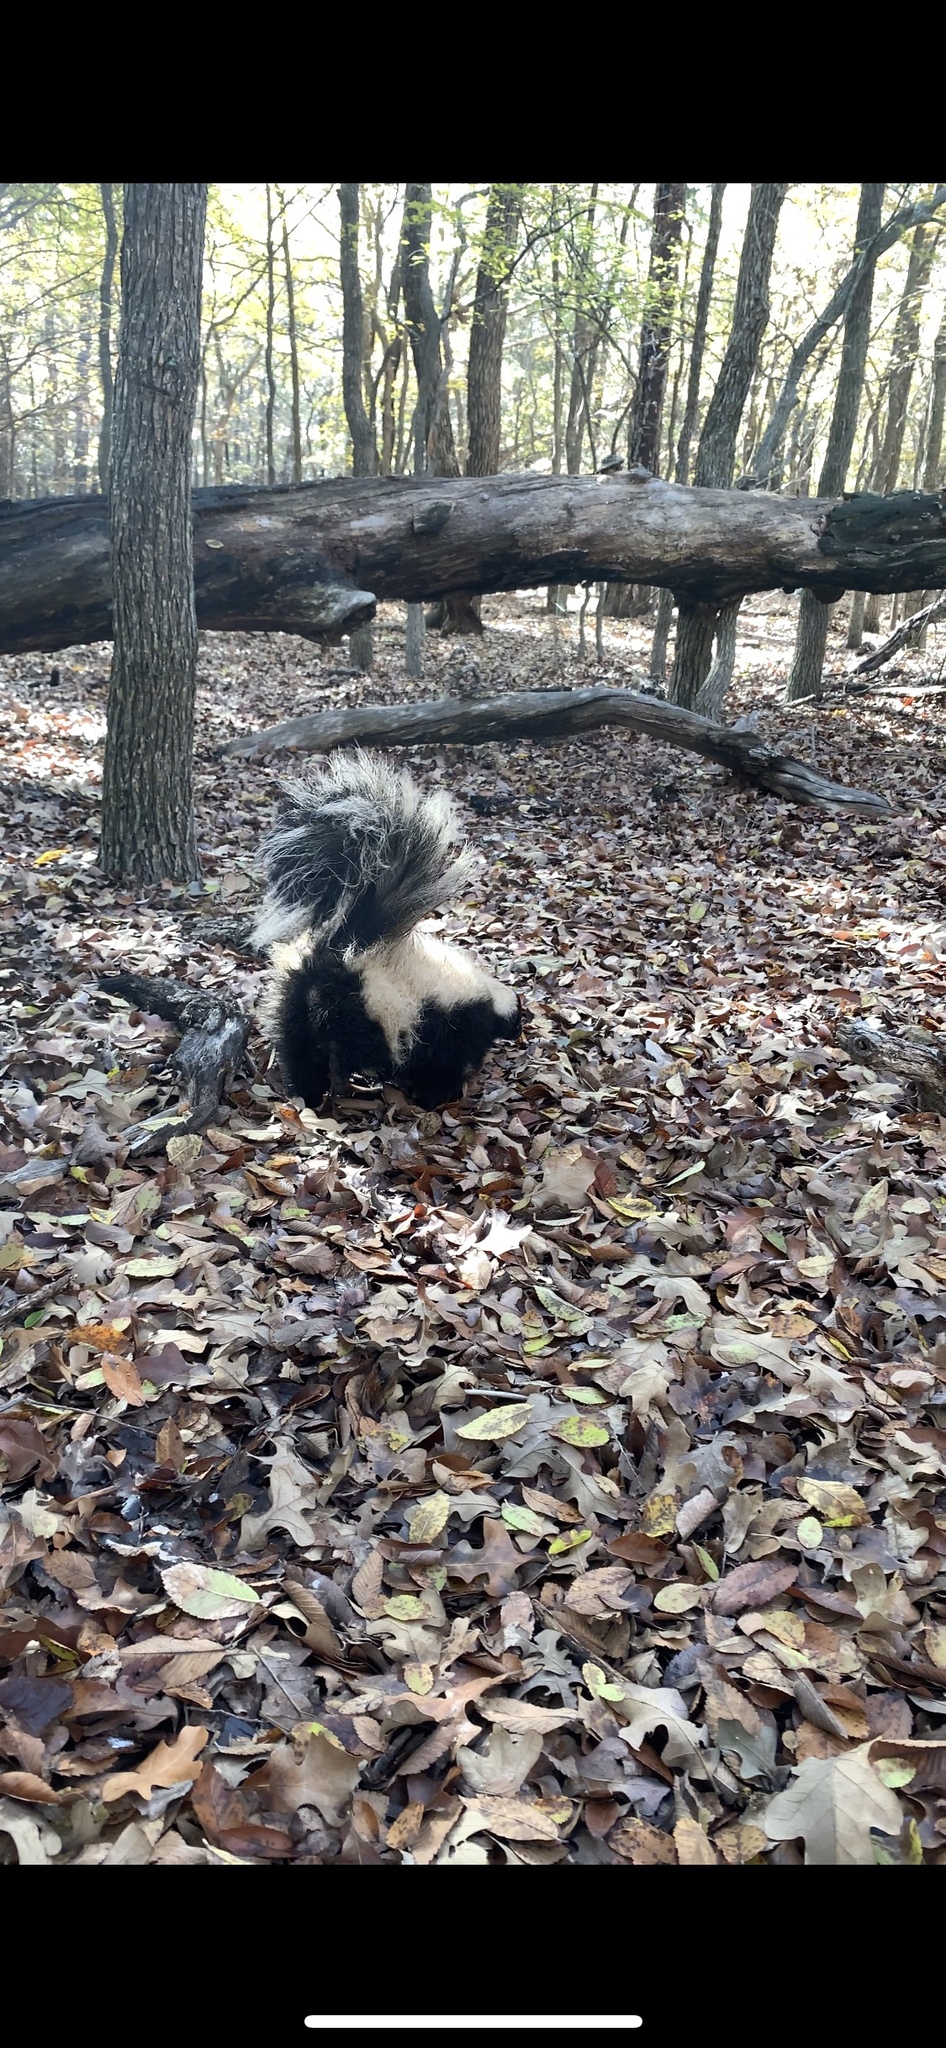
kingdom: Animalia
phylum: Chordata
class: Mammalia
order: Carnivora
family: Mephitidae
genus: Mephitis
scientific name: Mephitis mephitis
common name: Striped skunk
